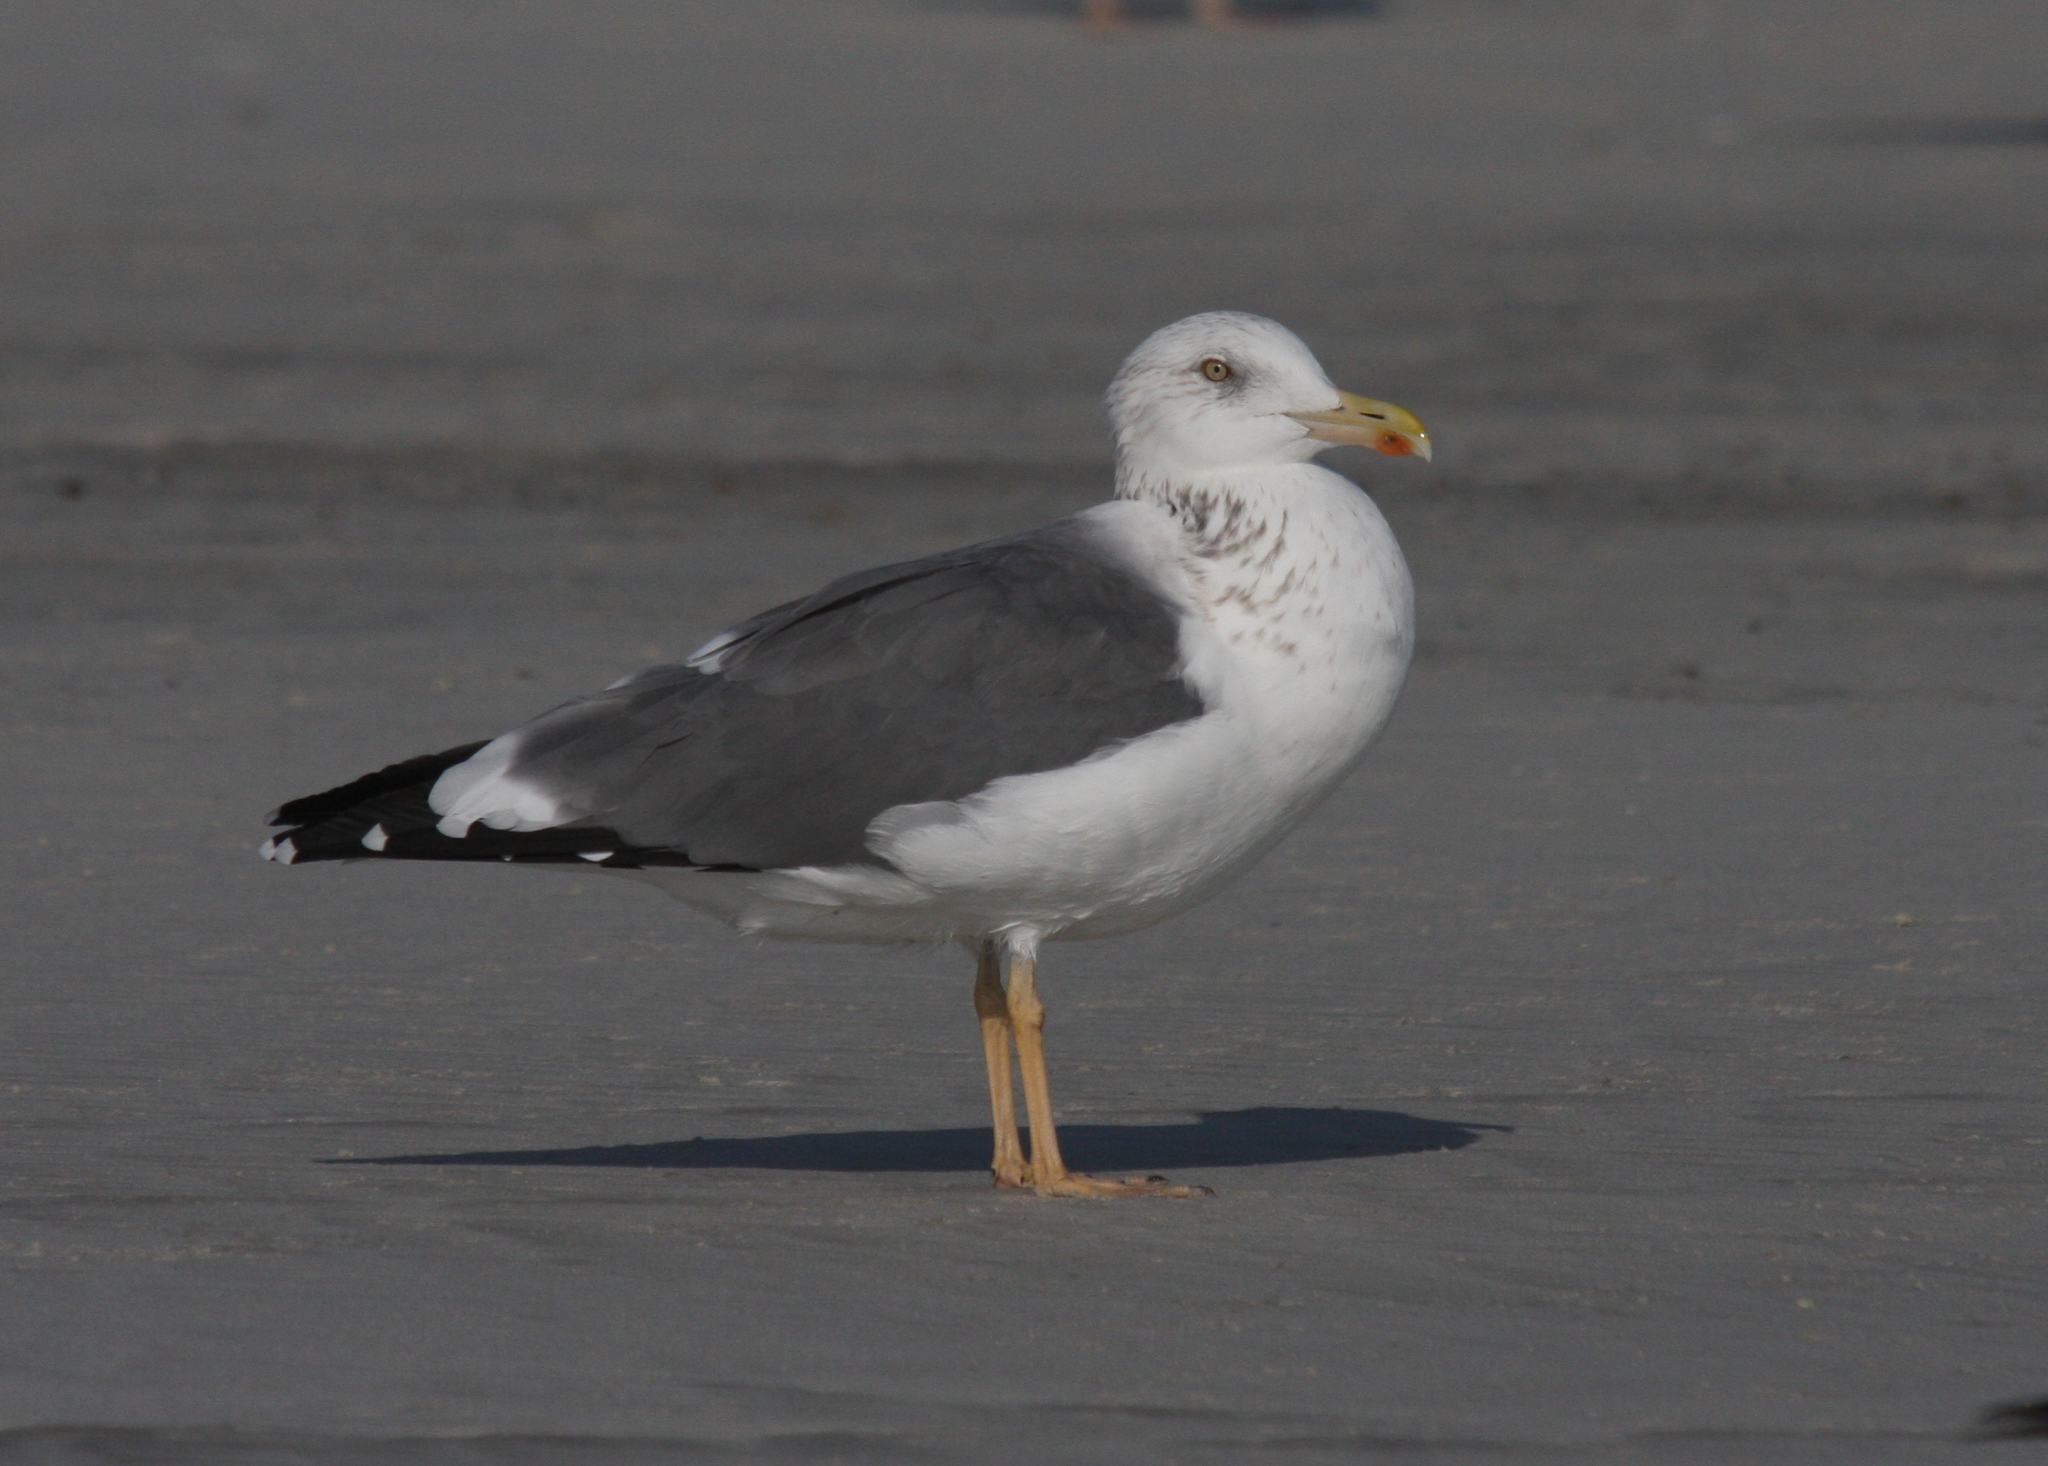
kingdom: Animalia
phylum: Chordata
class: Aves
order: Charadriiformes
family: Laridae
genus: Larus
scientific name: Larus fuscus
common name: Lesser black-backed gull
